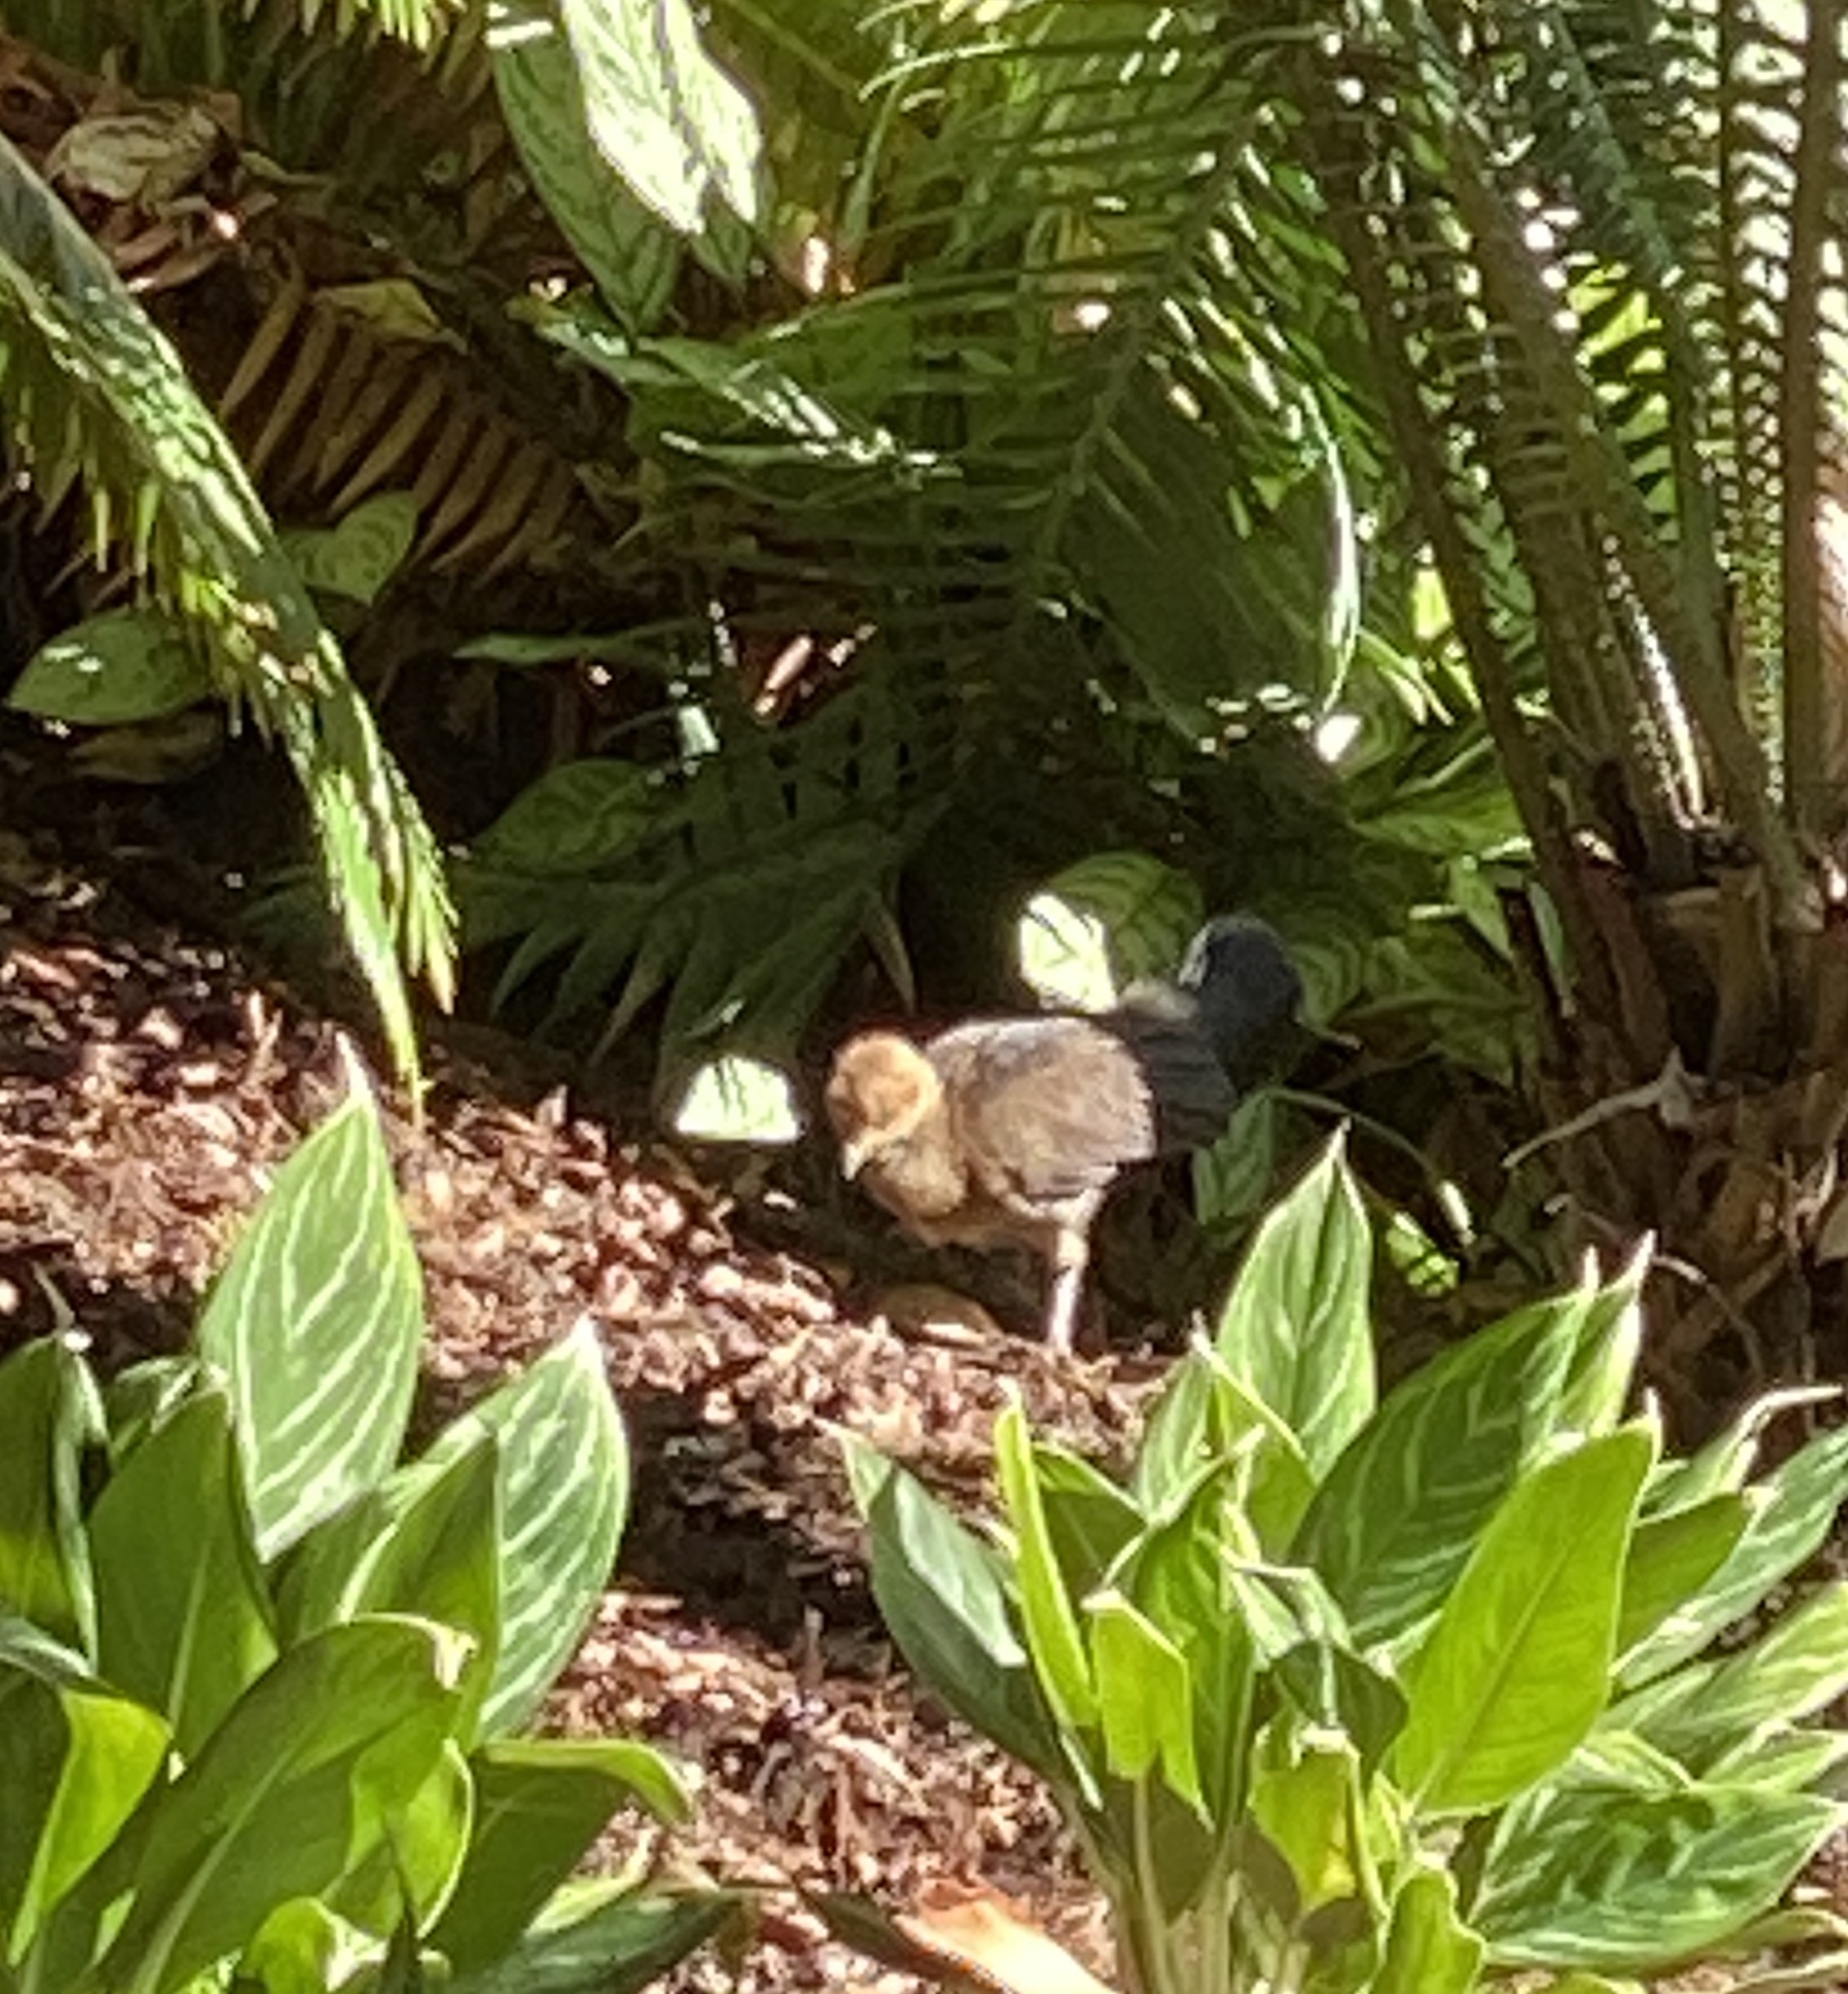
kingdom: Animalia
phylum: Chordata
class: Aves
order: Galliformes
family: Megapodiidae
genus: Alectura
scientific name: Alectura lathami
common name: Australian brushturkey
